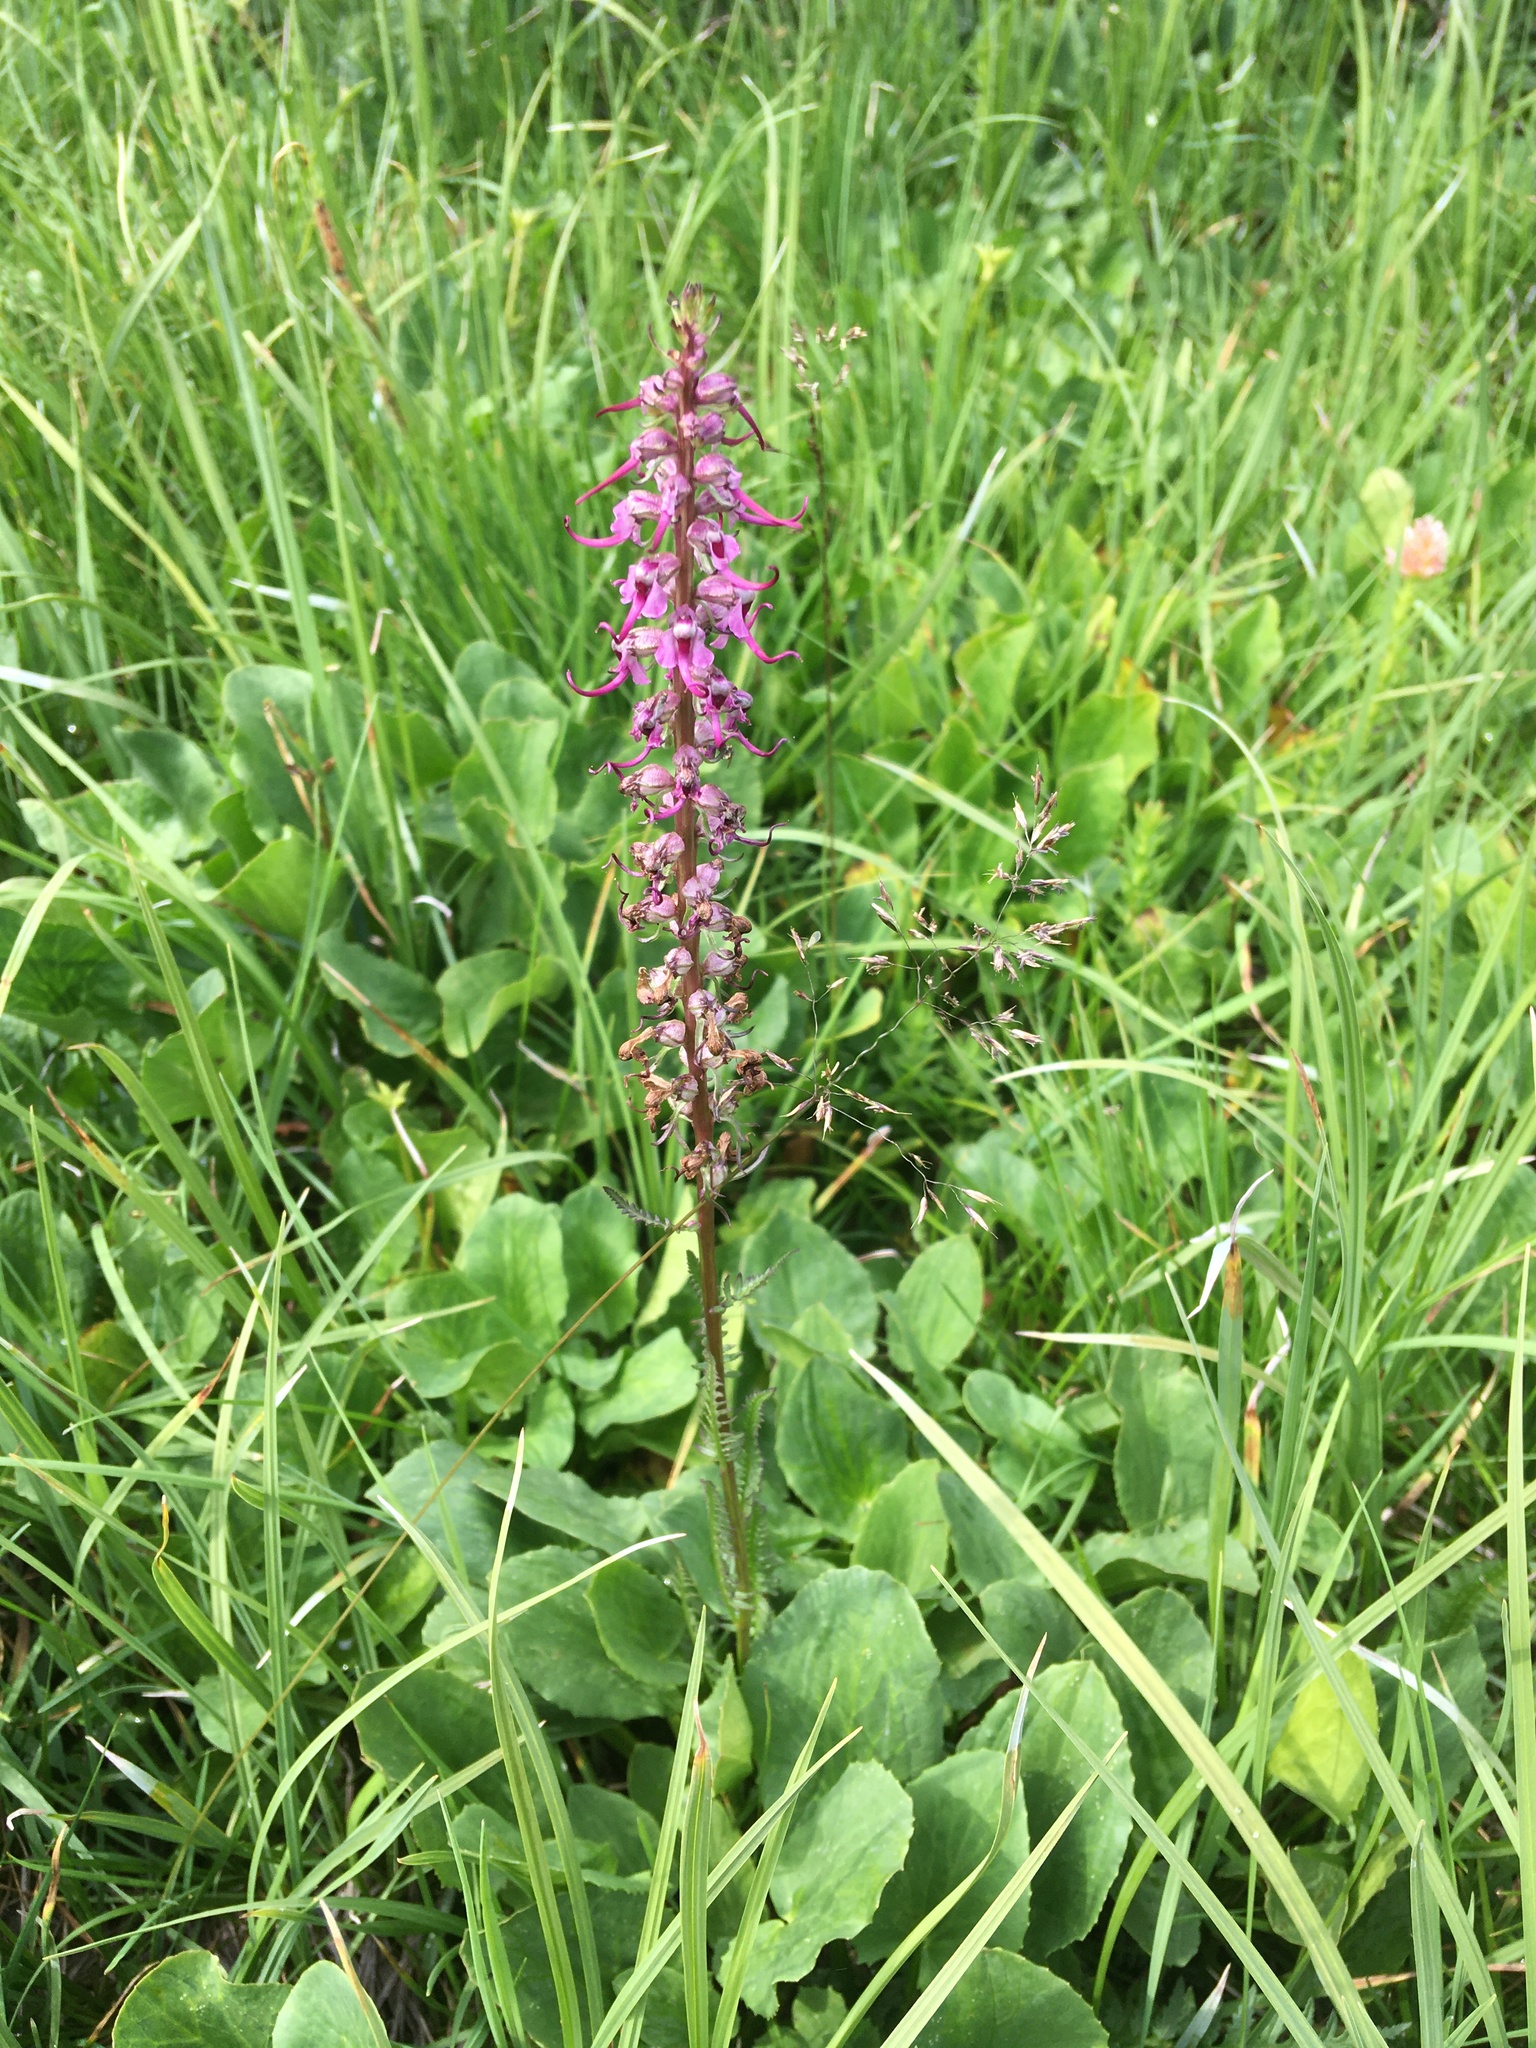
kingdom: Plantae
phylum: Tracheophyta
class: Magnoliopsida
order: Lamiales
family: Orobanchaceae
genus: Pedicularis
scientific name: Pedicularis groenlandica
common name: Elephant's-head
